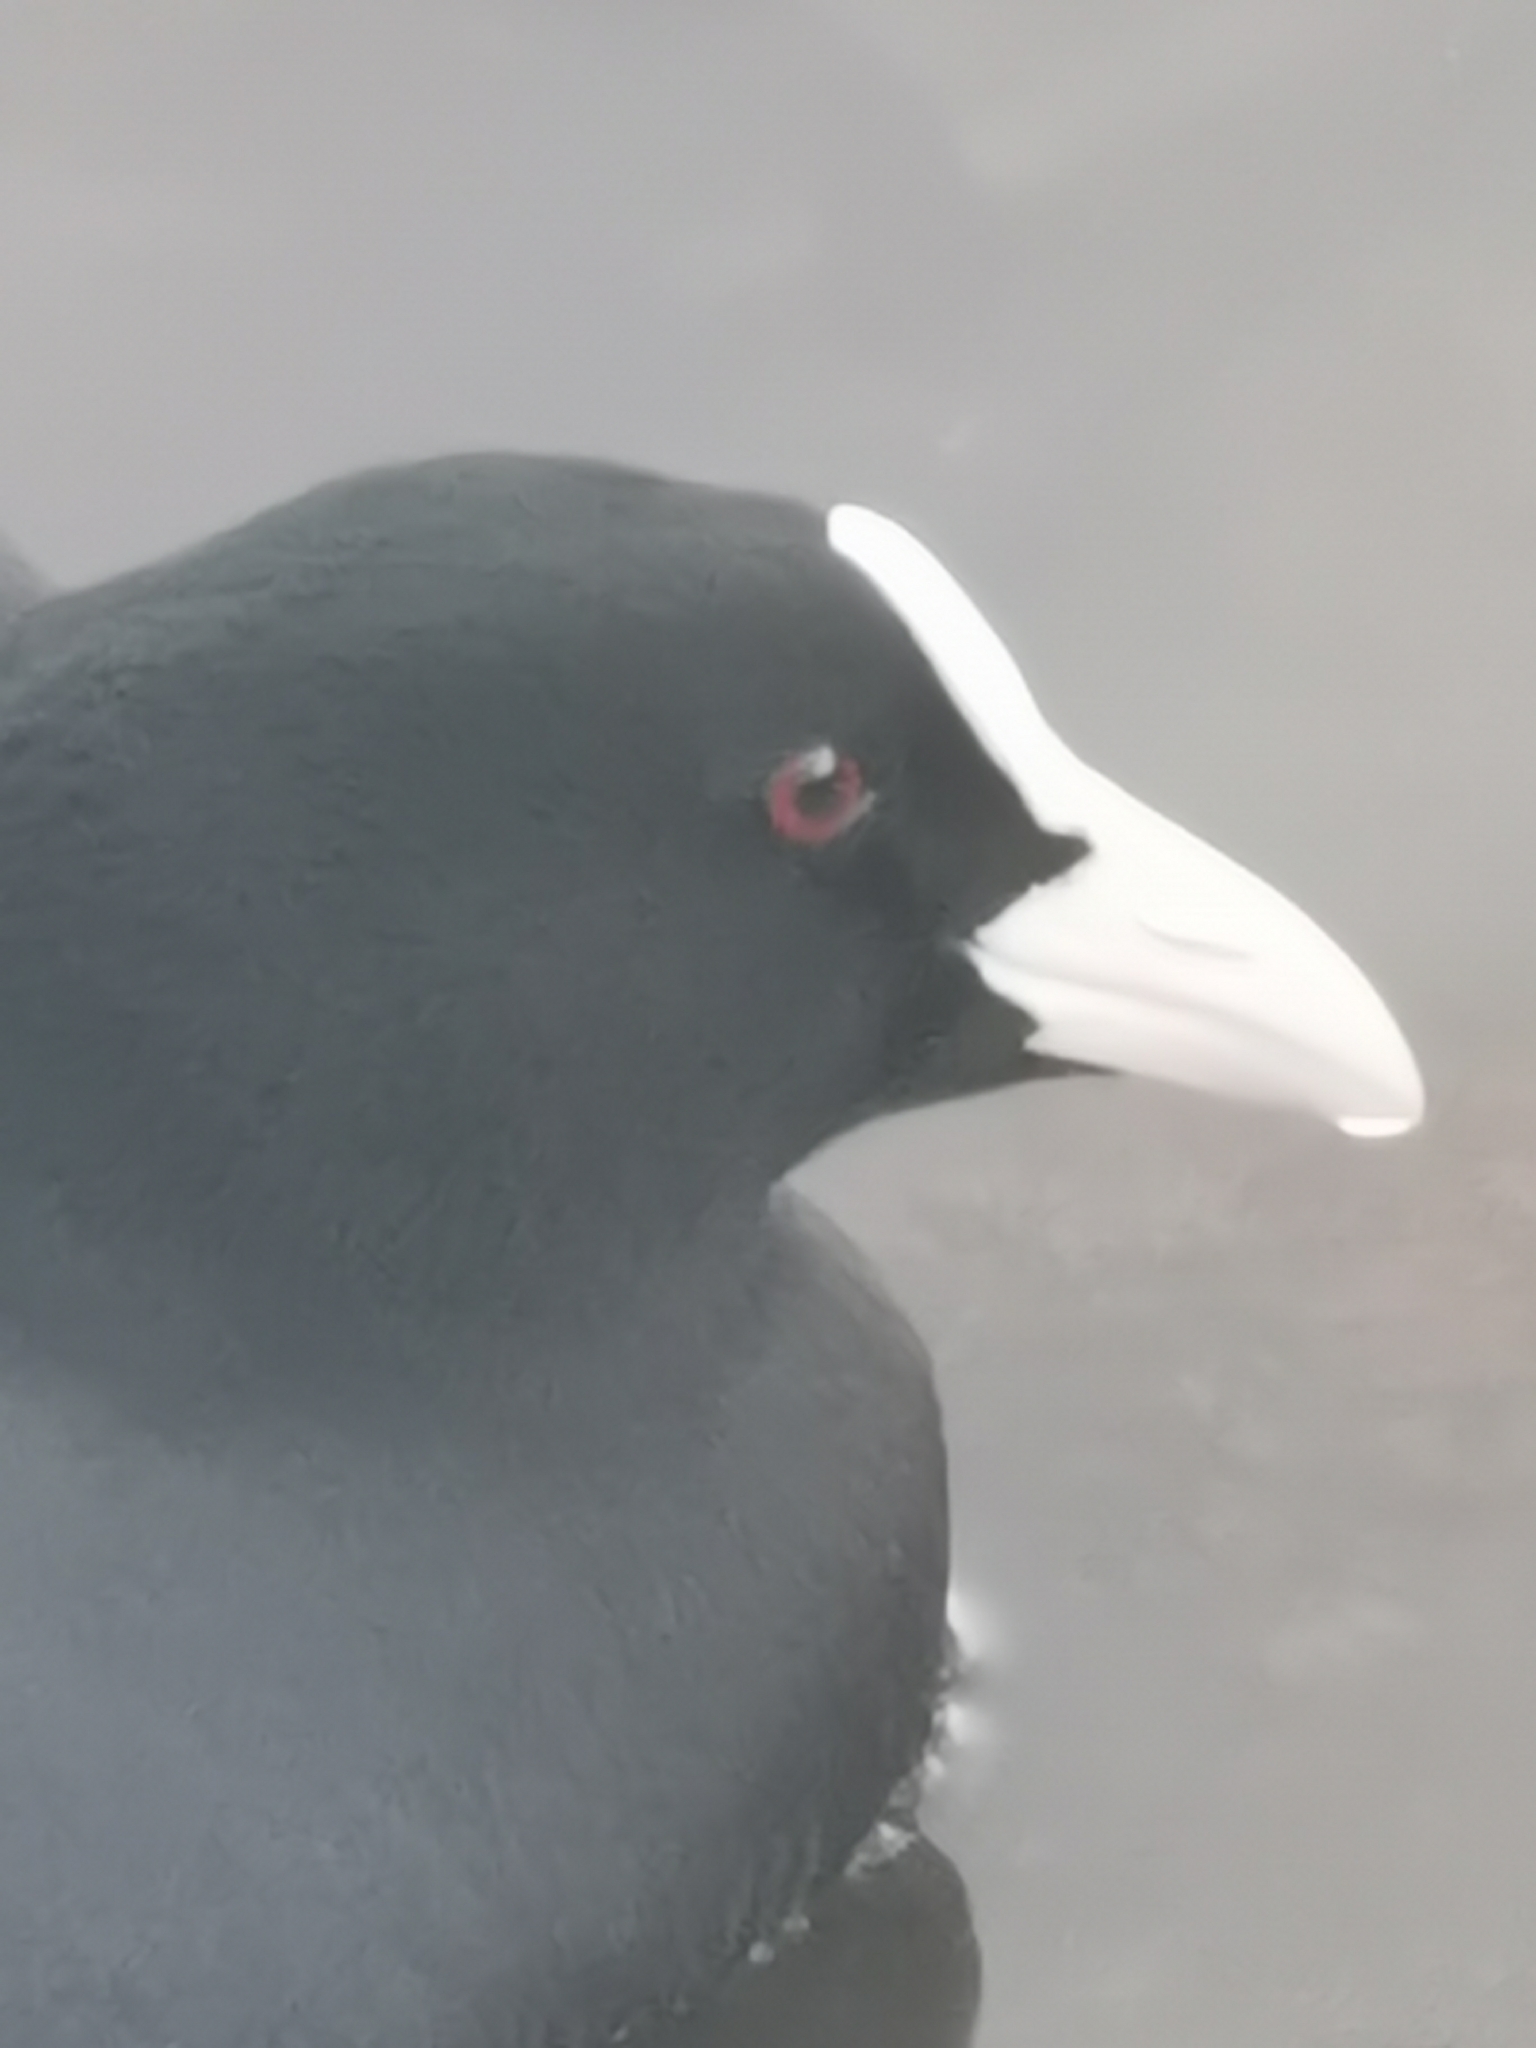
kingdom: Animalia
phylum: Chordata
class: Aves
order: Gruiformes
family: Rallidae
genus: Fulica
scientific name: Fulica atra
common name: Eurasian coot
